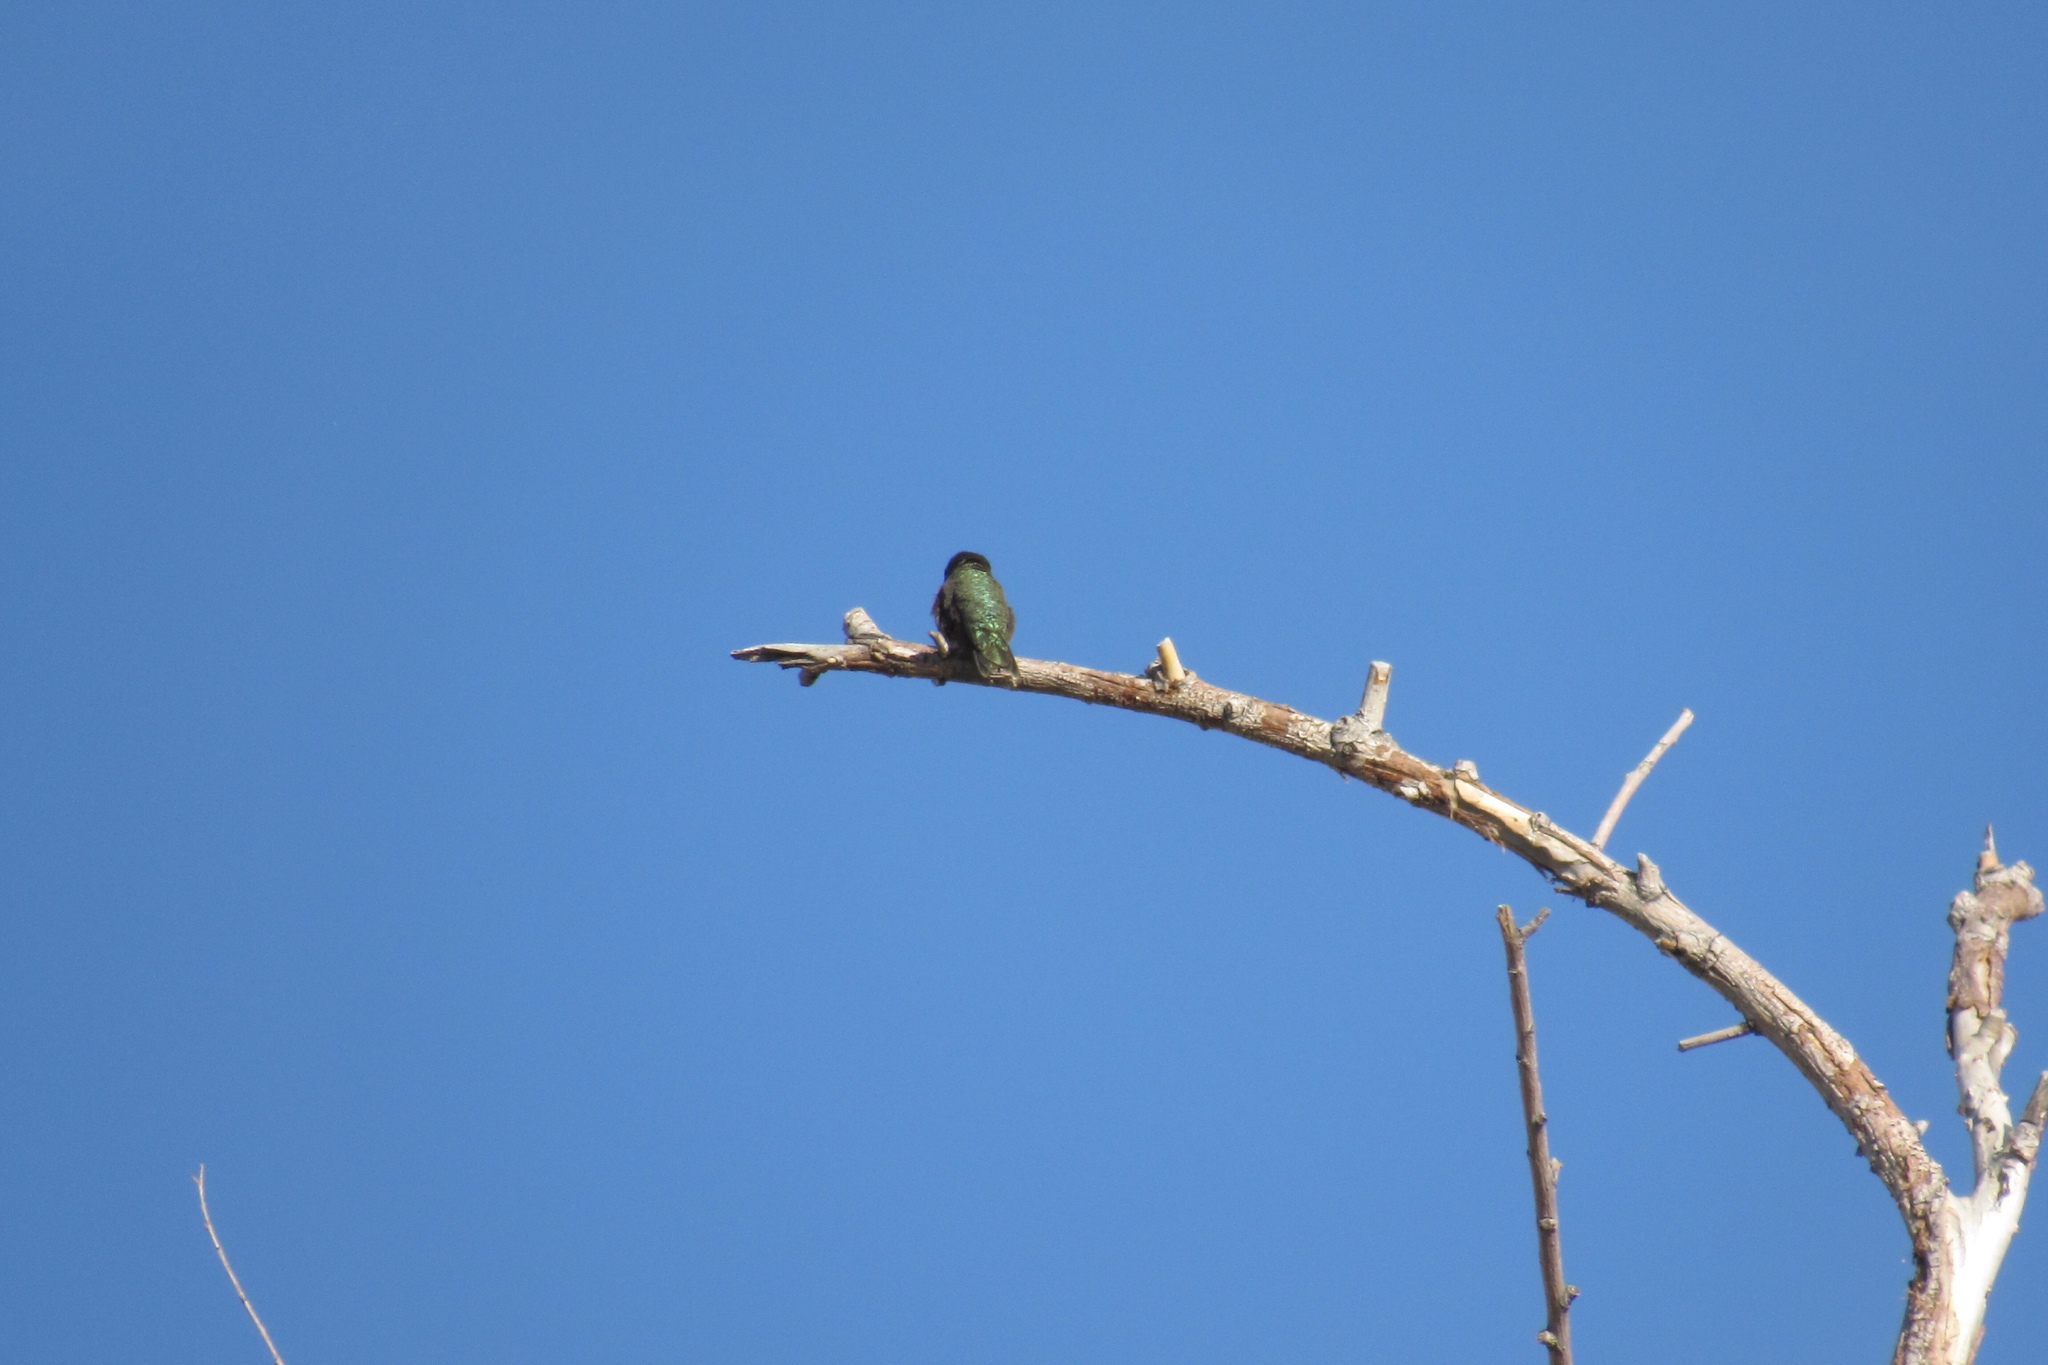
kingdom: Animalia
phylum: Chordata
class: Aves
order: Apodiformes
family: Trochilidae
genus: Calypte
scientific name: Calypte anna
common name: Anna's hummingbird
